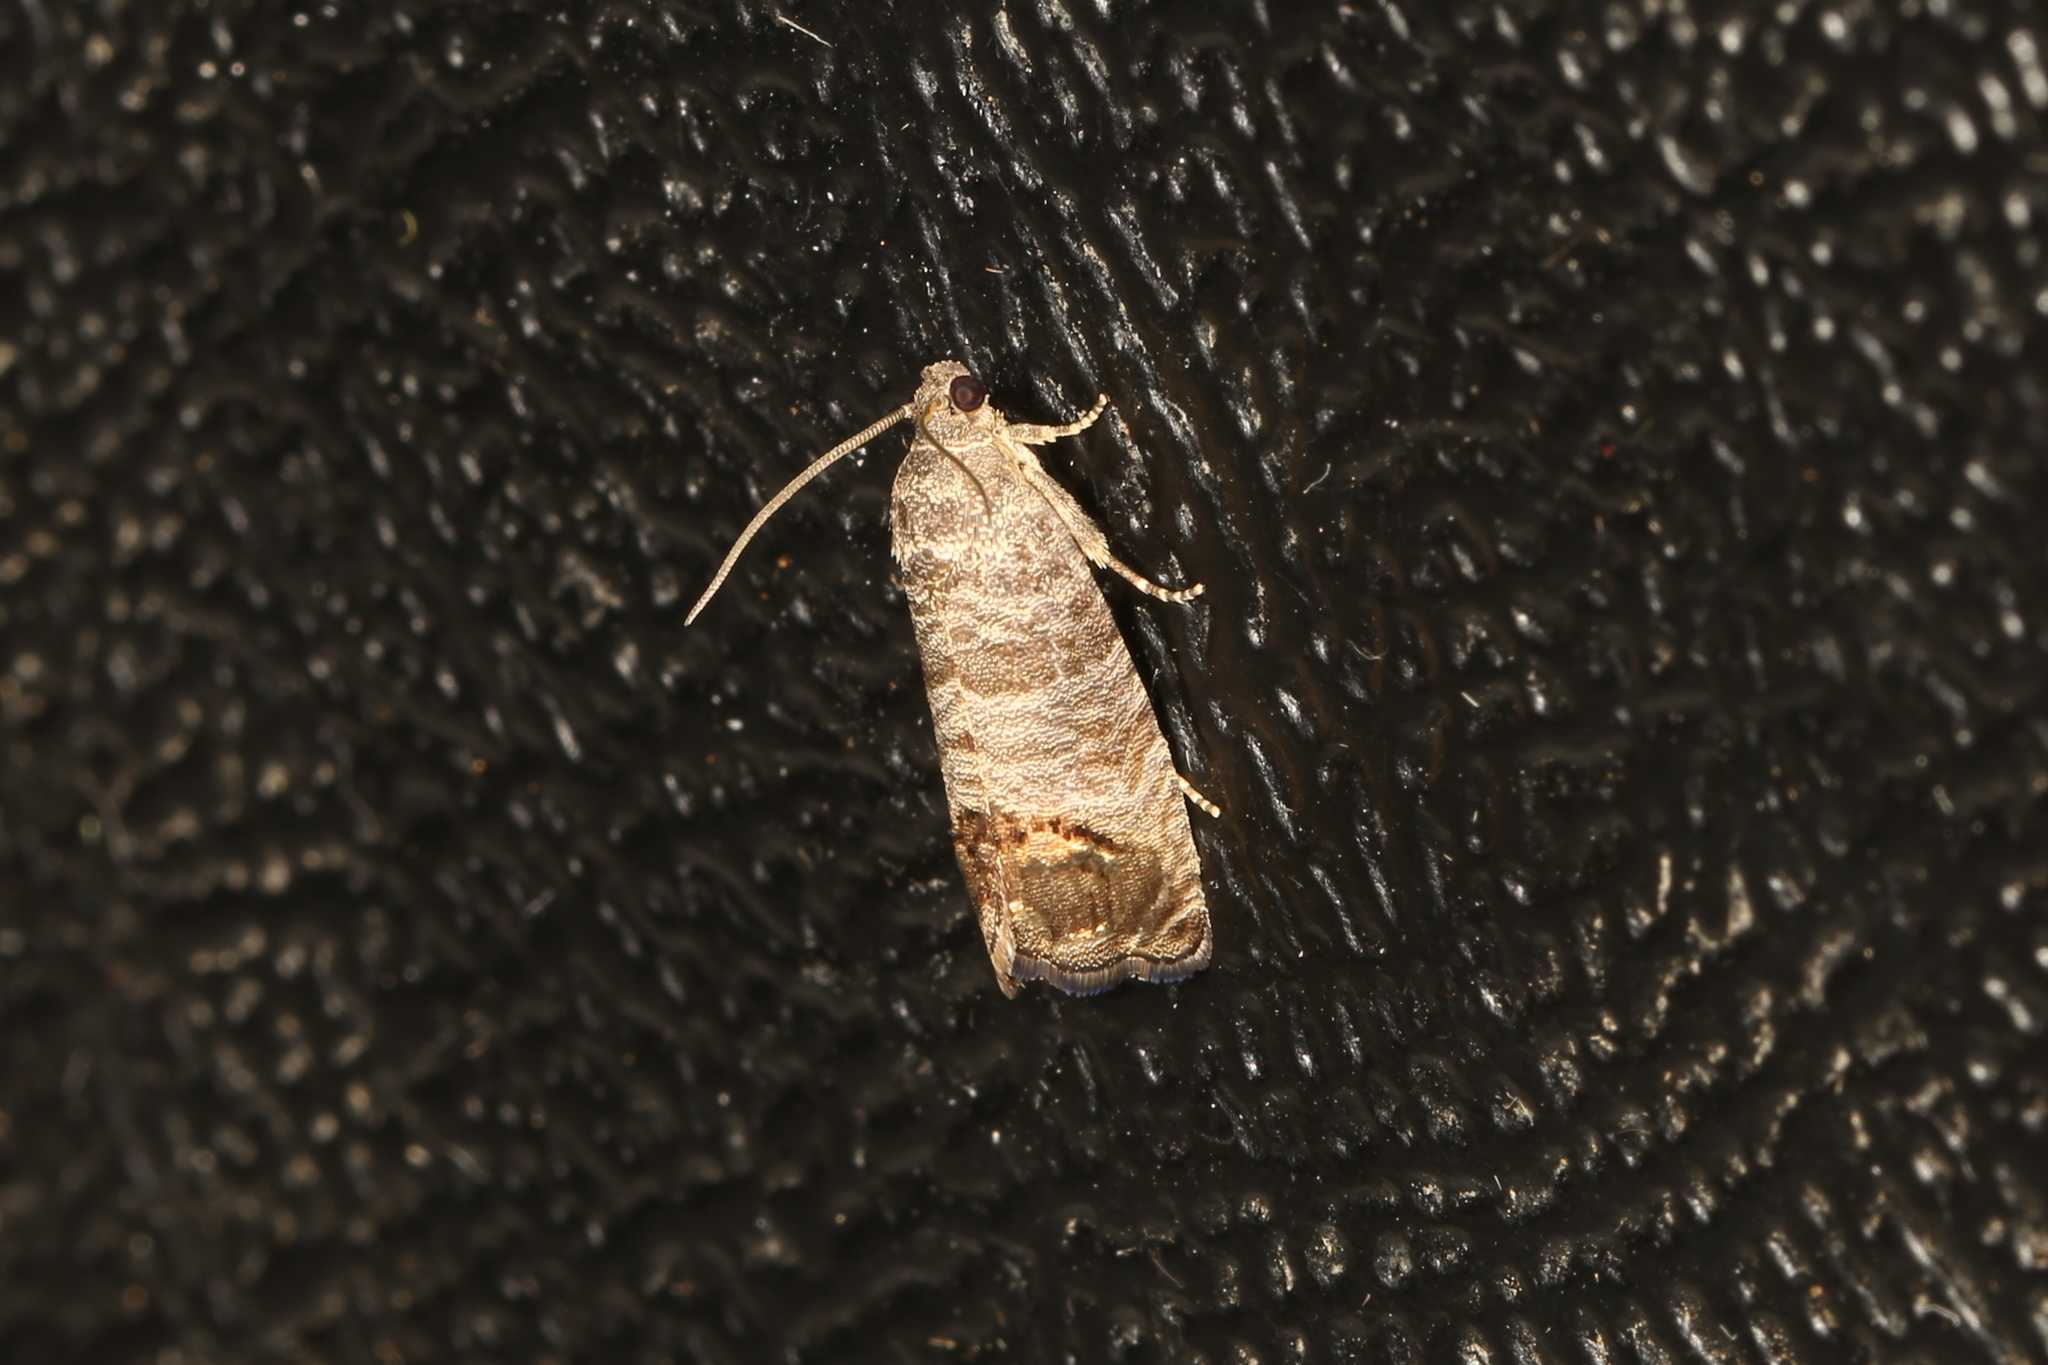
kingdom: Animalia
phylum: Arthropoda
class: Insecta
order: Lepidoptera
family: Tortricidae
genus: Cydia
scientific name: Cydia pomonella
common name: Codling moth
